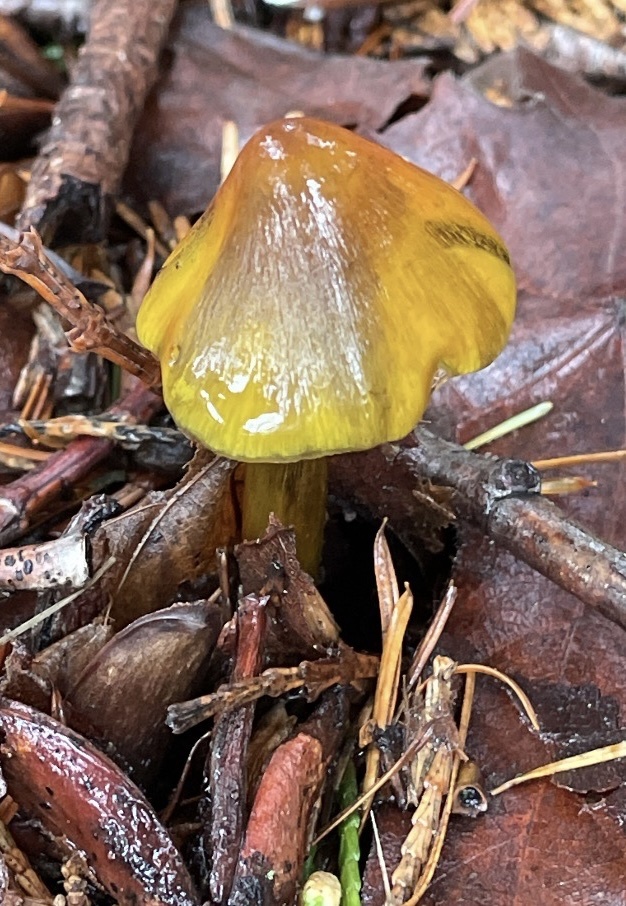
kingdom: Fungi
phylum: Basidiomycota
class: Agaricomycetes
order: Agaricales
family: Hygrophoraceae
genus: Hygrocybe
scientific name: Hygrocybe singeri
